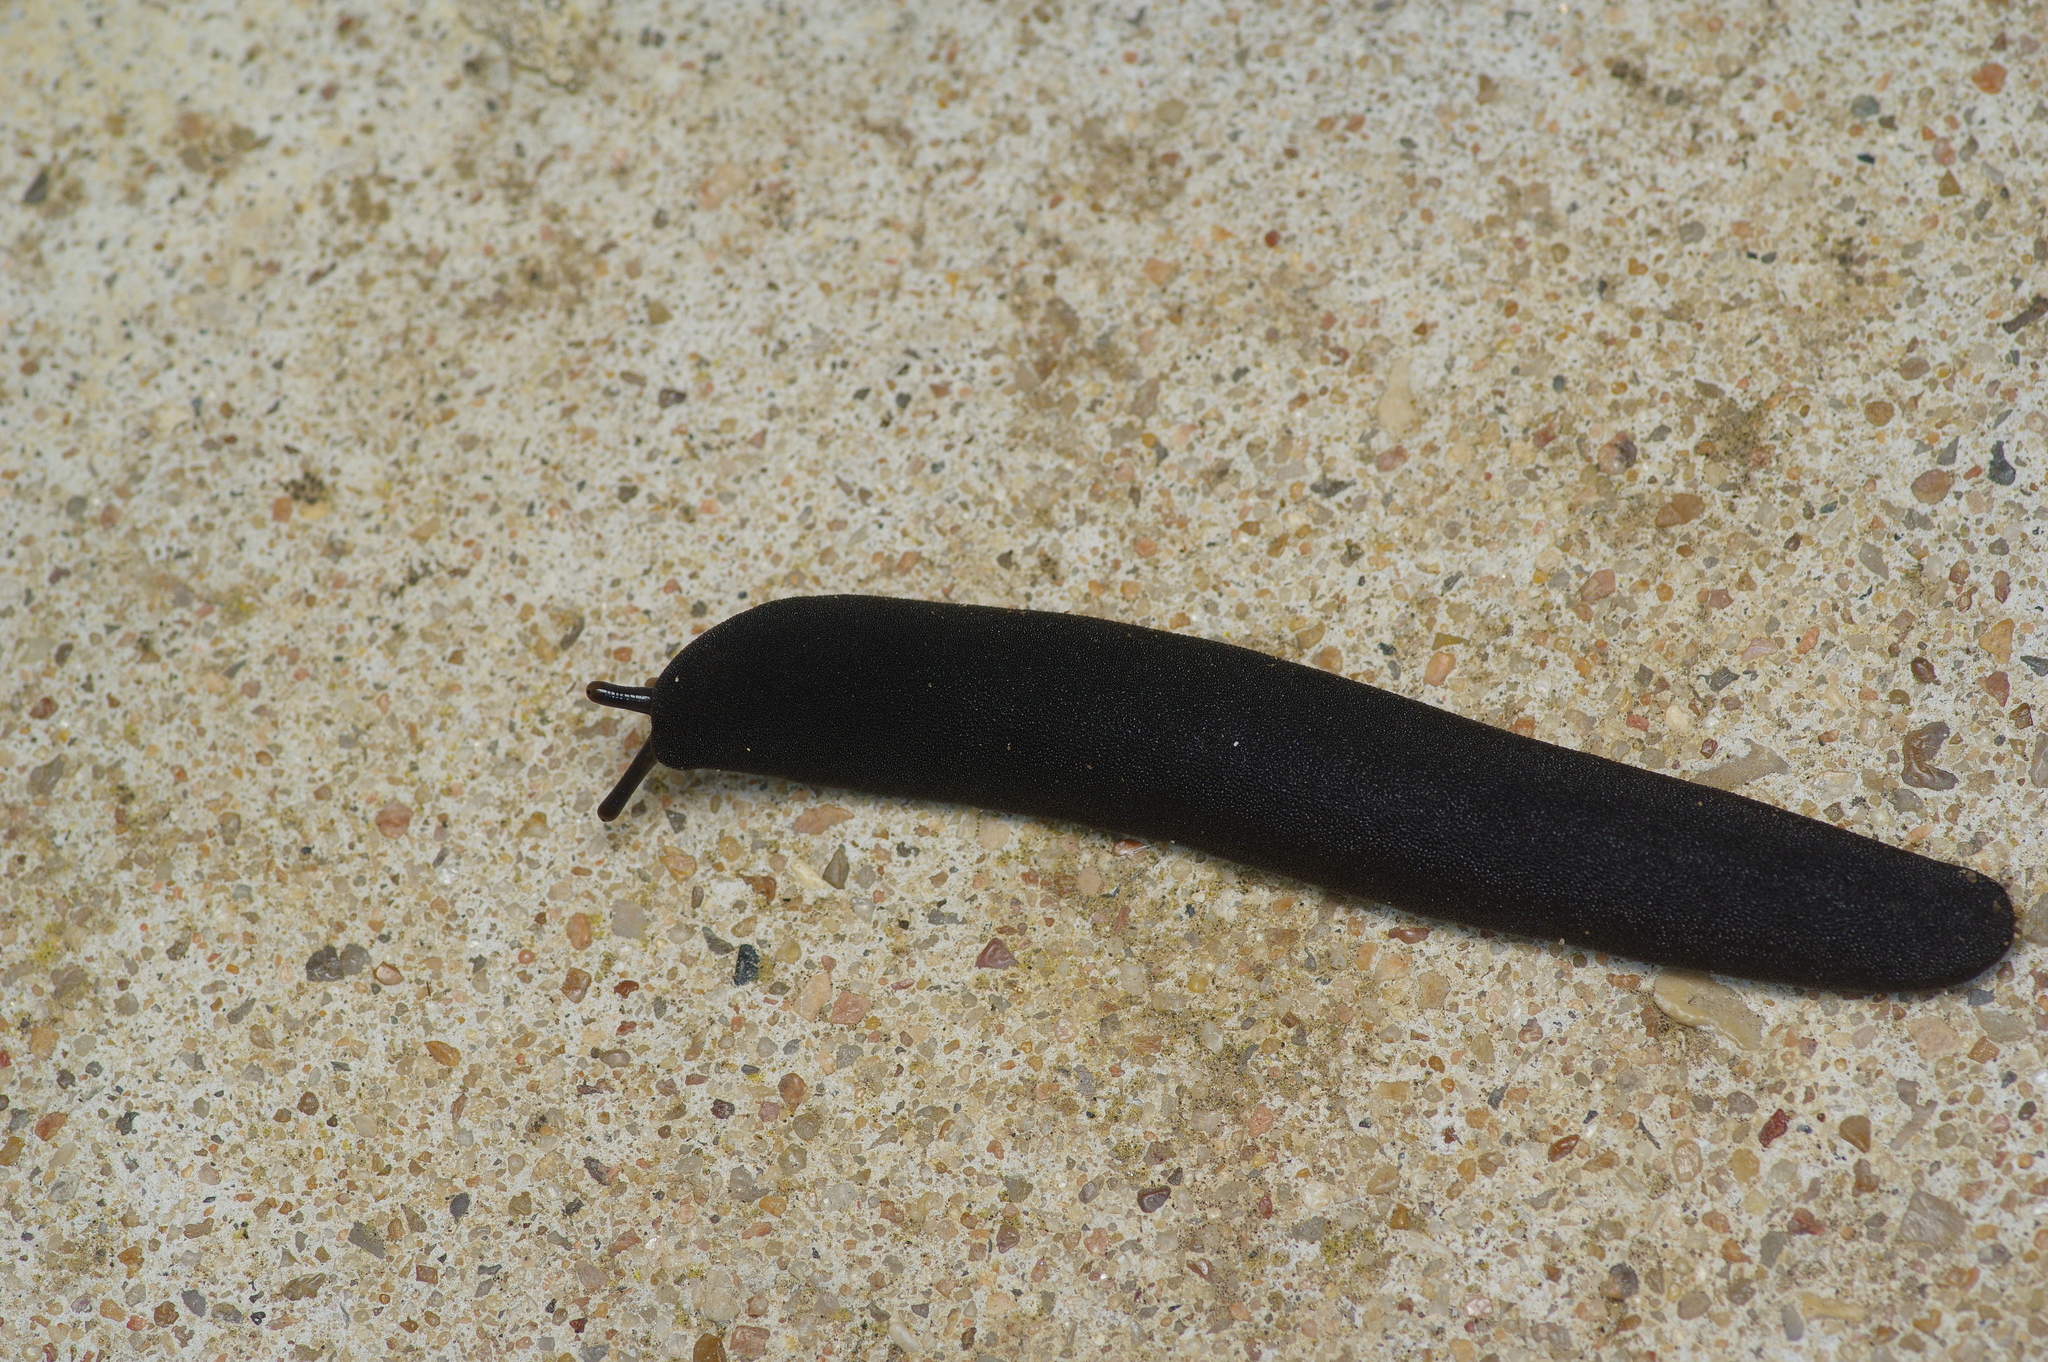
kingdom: Animalia
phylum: Mollusca
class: Gastropoda
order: Systellommatophora
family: Veronicellidae
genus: Belocaulus
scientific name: Belocaulus angustipes
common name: Black velvet leatherleaf slug
